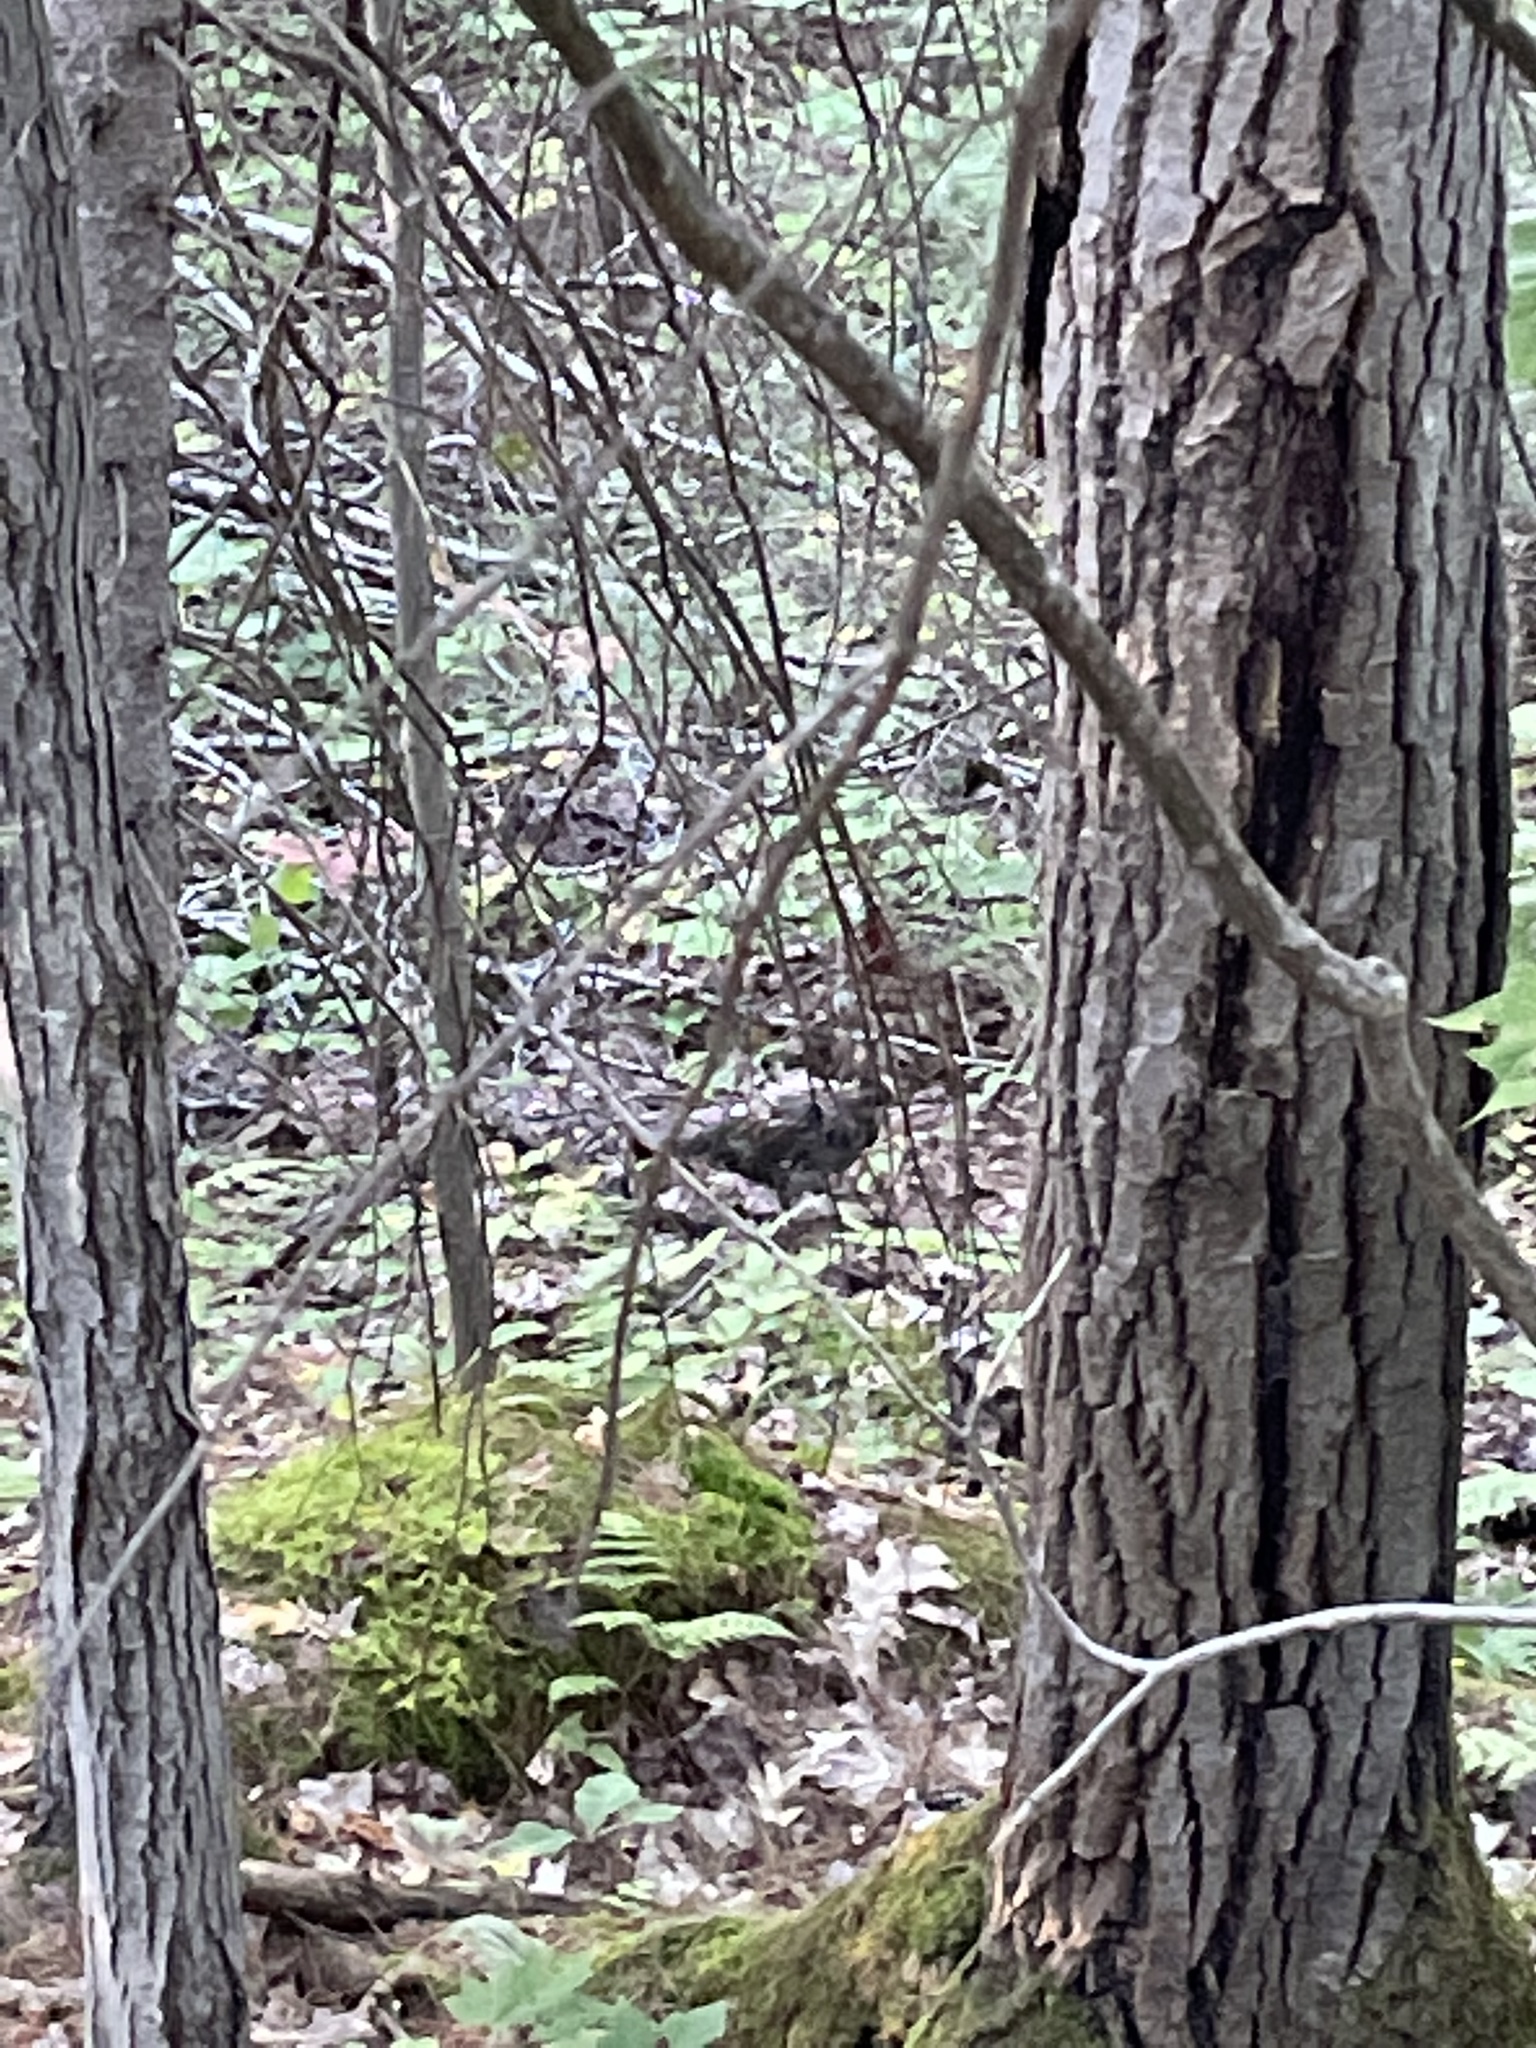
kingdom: Animalia
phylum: Chordata
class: Aves
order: Galliformes
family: Phasianidae
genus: Bonasa
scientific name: Bonasa umbellus
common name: Ruffed grouse
